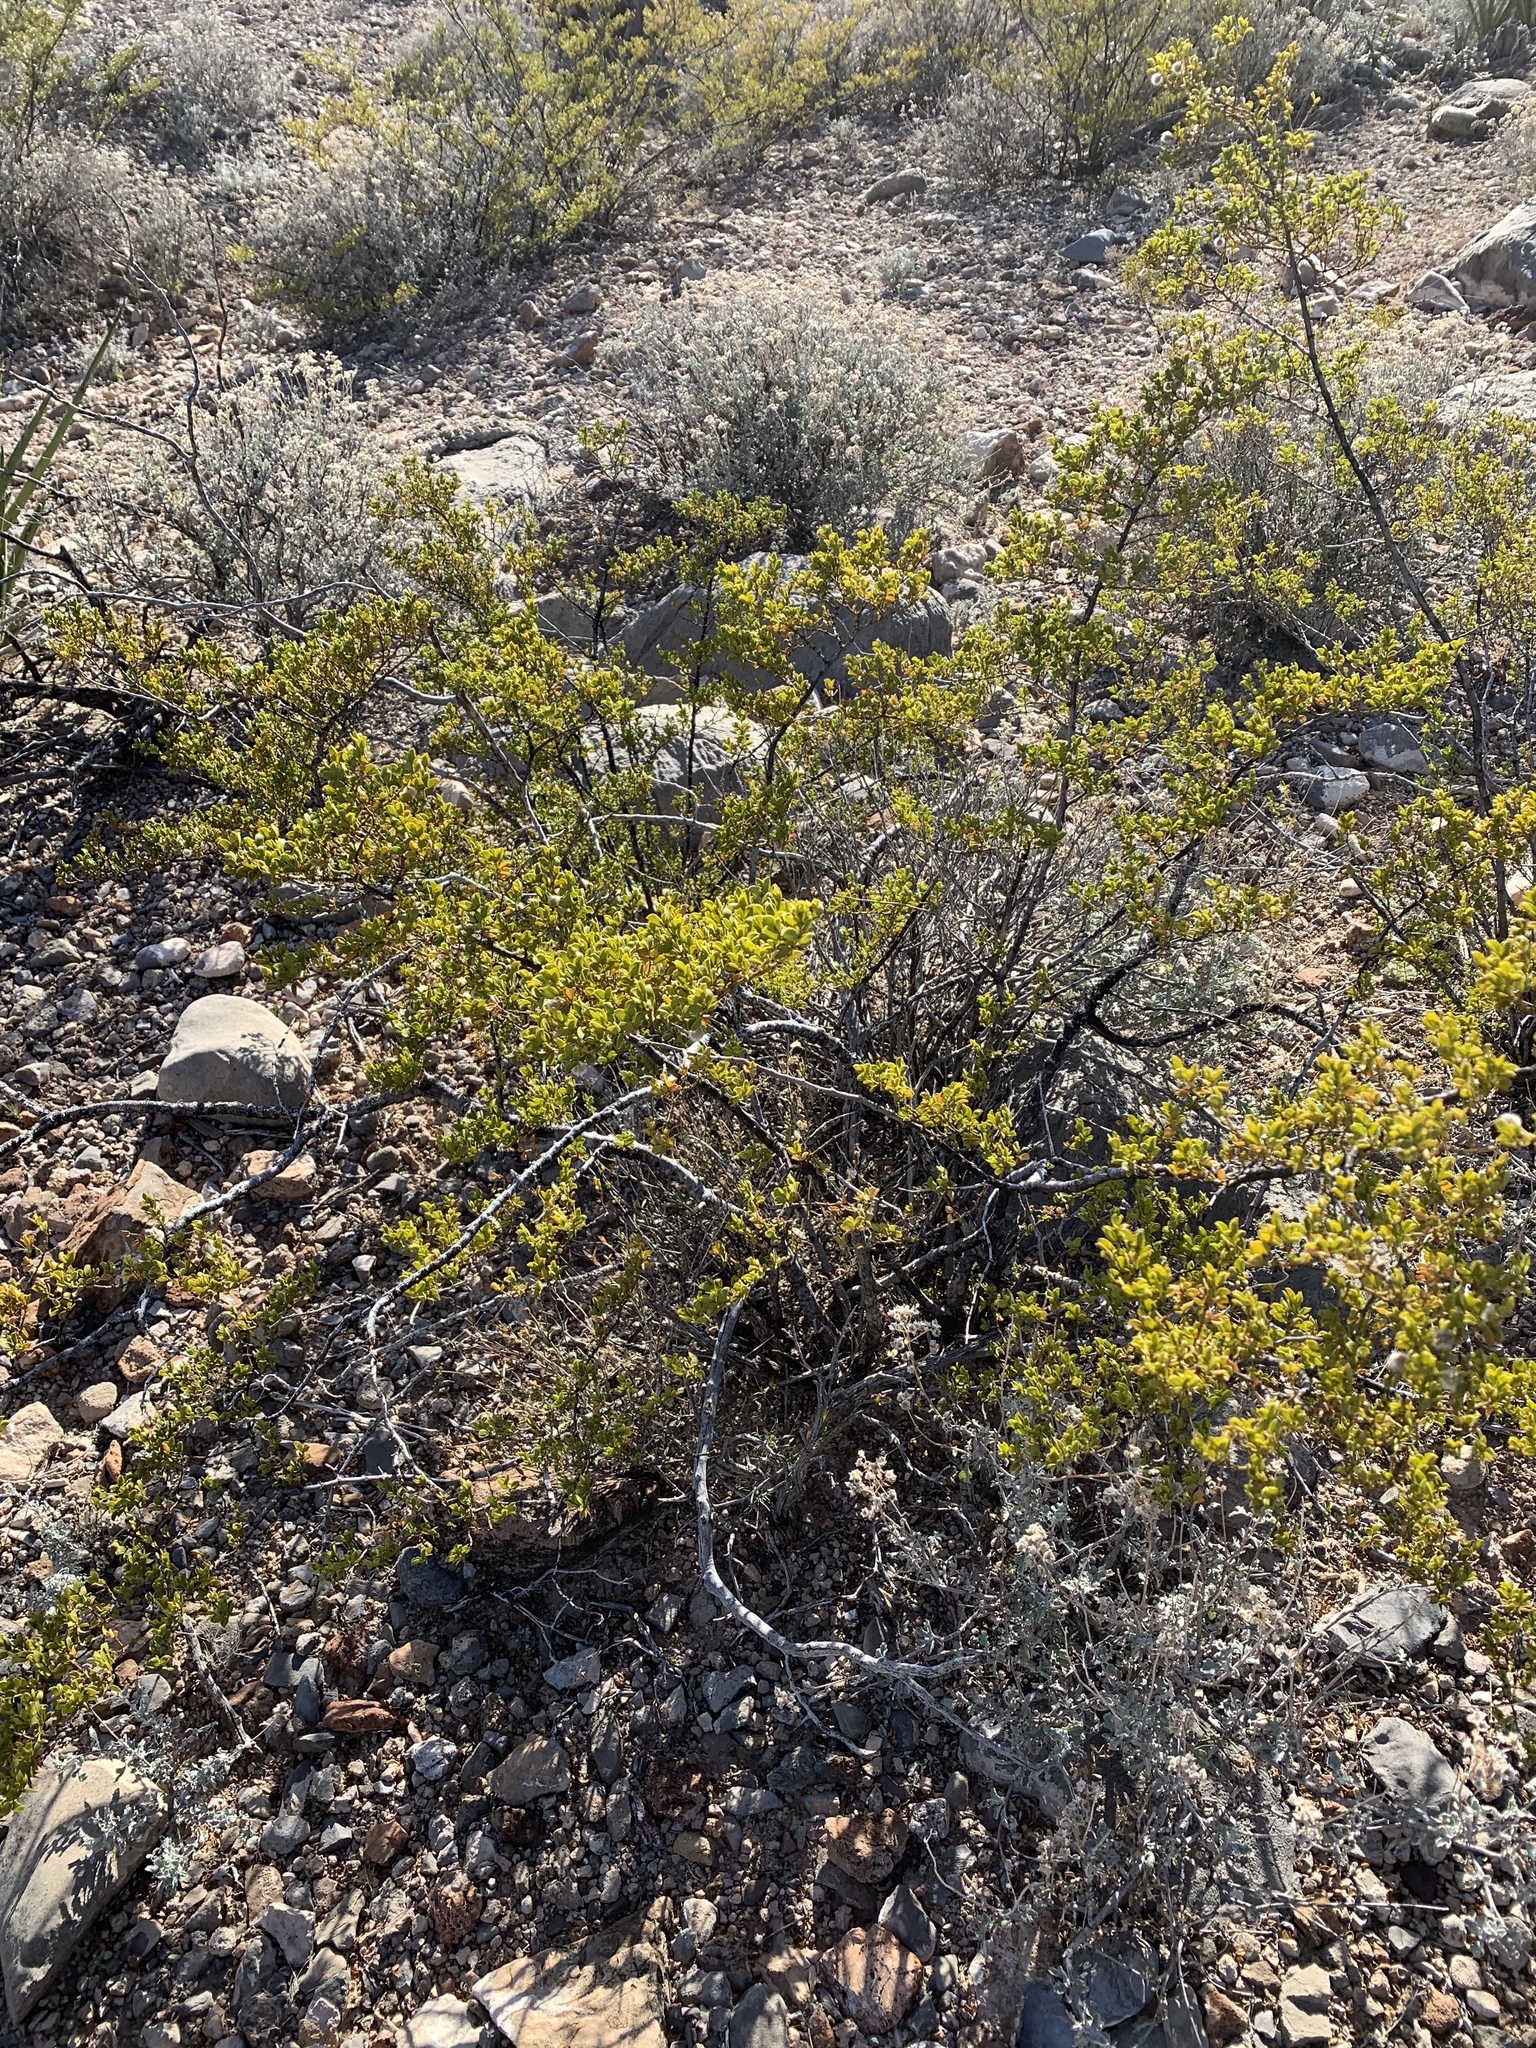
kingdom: Plantae
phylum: Tracheophyta
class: Magnoliopsida
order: Zygophyllales
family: Zygophyllaceae
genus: Larrea
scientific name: Larrea tridentata
